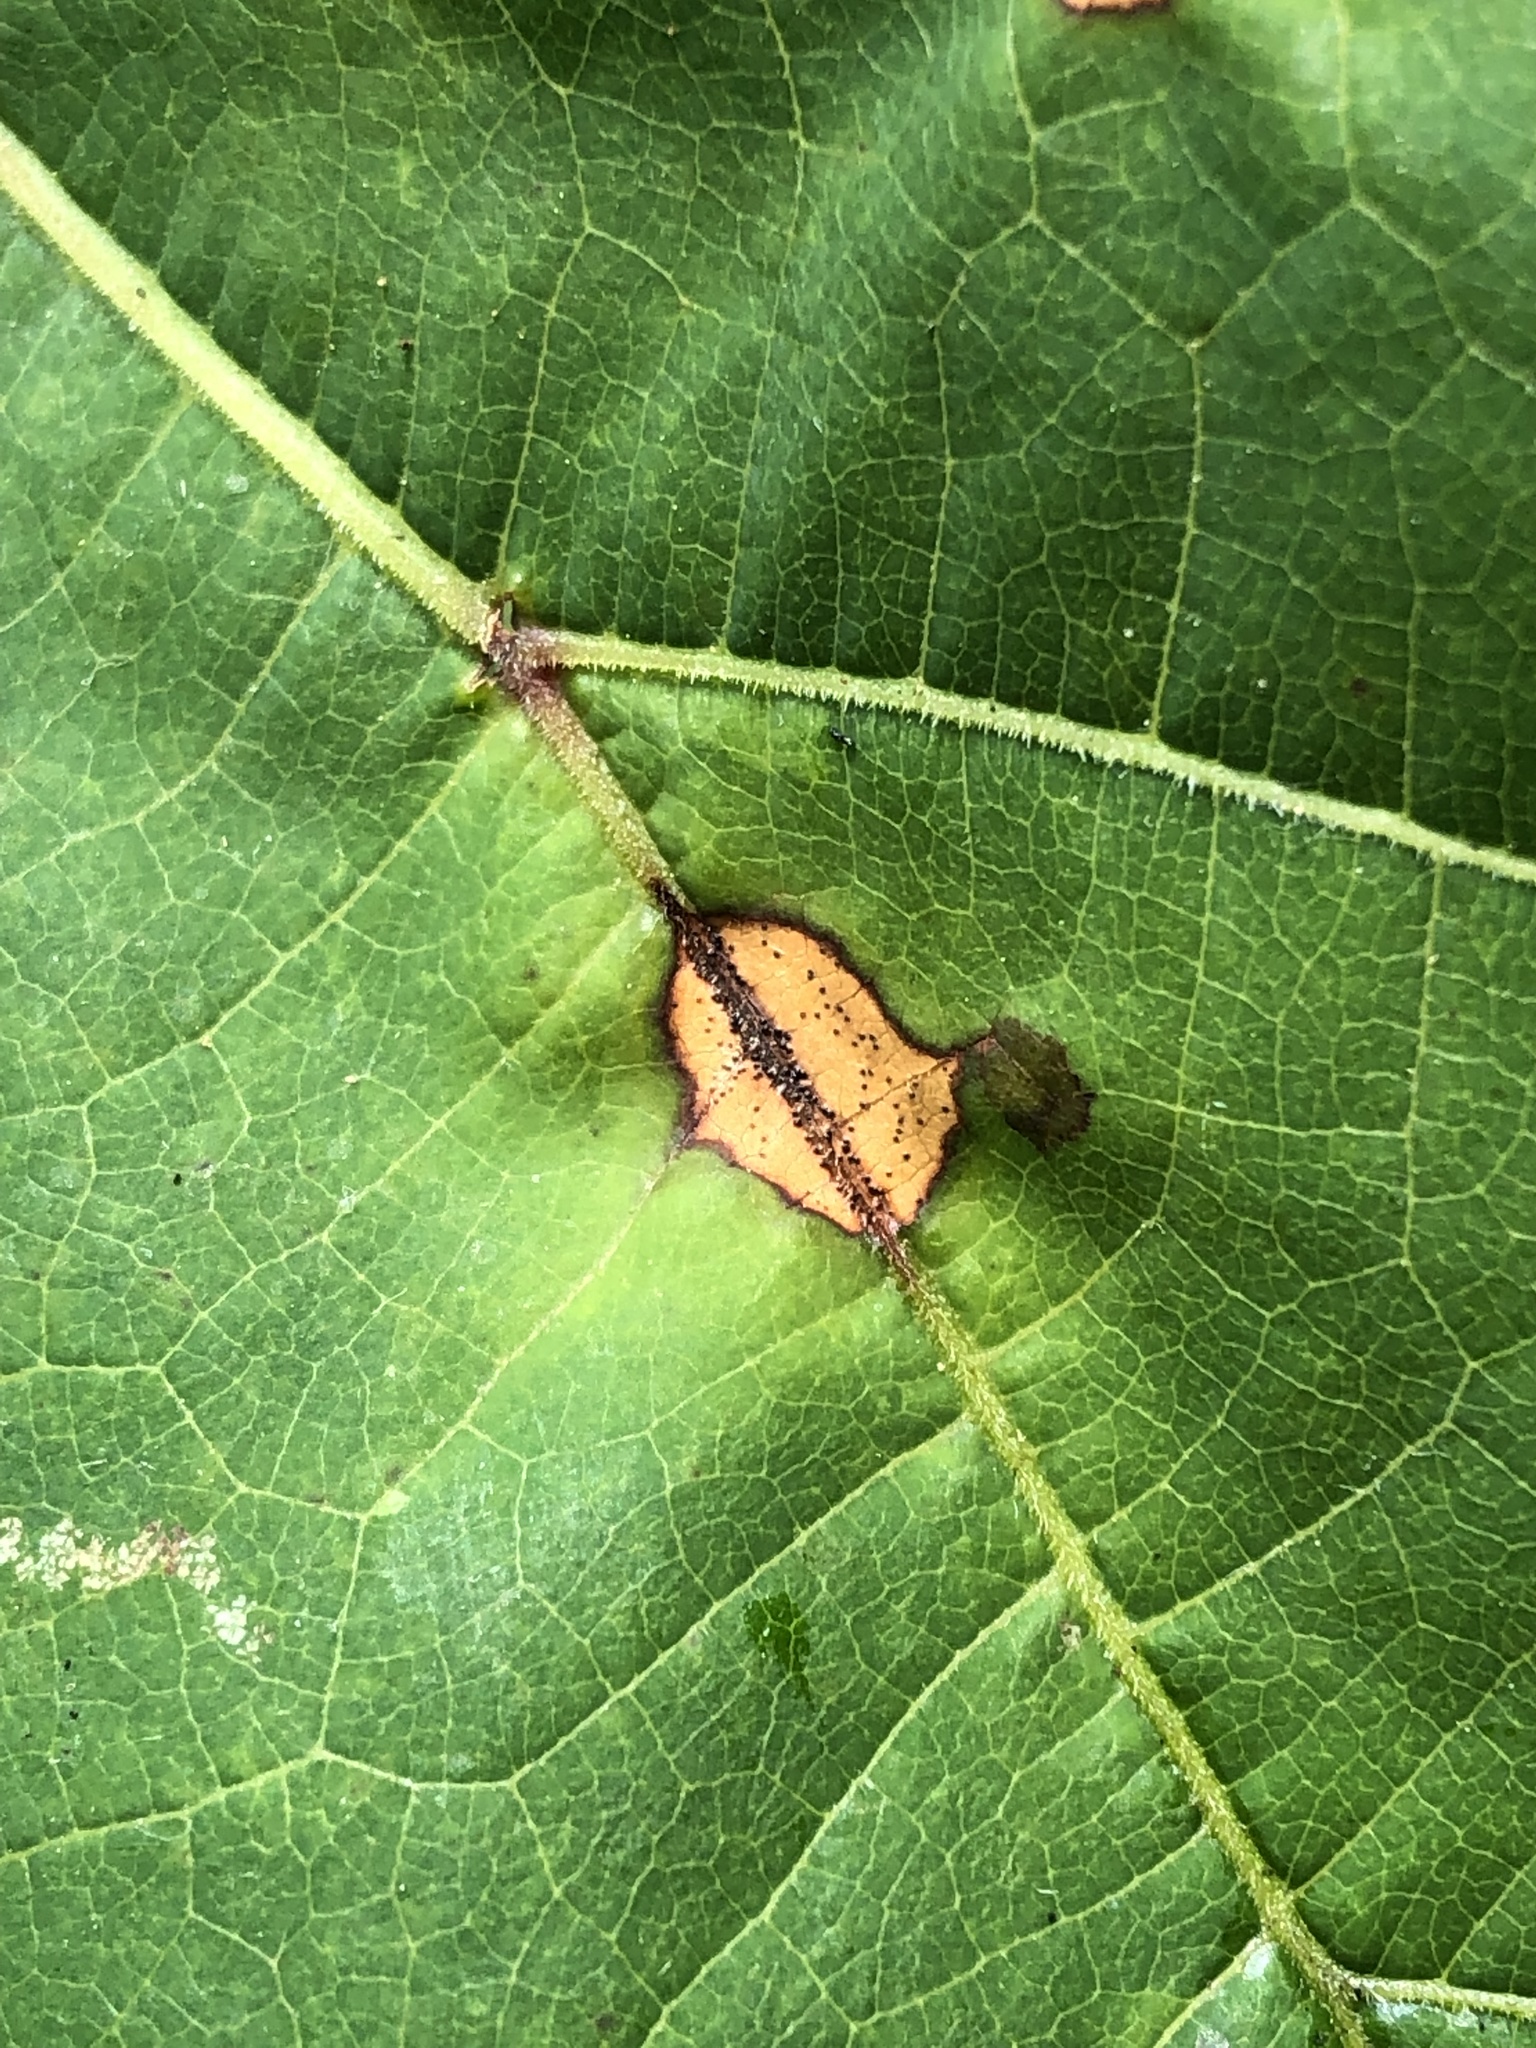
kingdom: Fungi
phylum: Ascomycota
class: Dothideomycetes
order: Botryosphaeriales
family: Phyllostictaceae
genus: Phyllosticta
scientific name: Phyllosticta ampelicida
